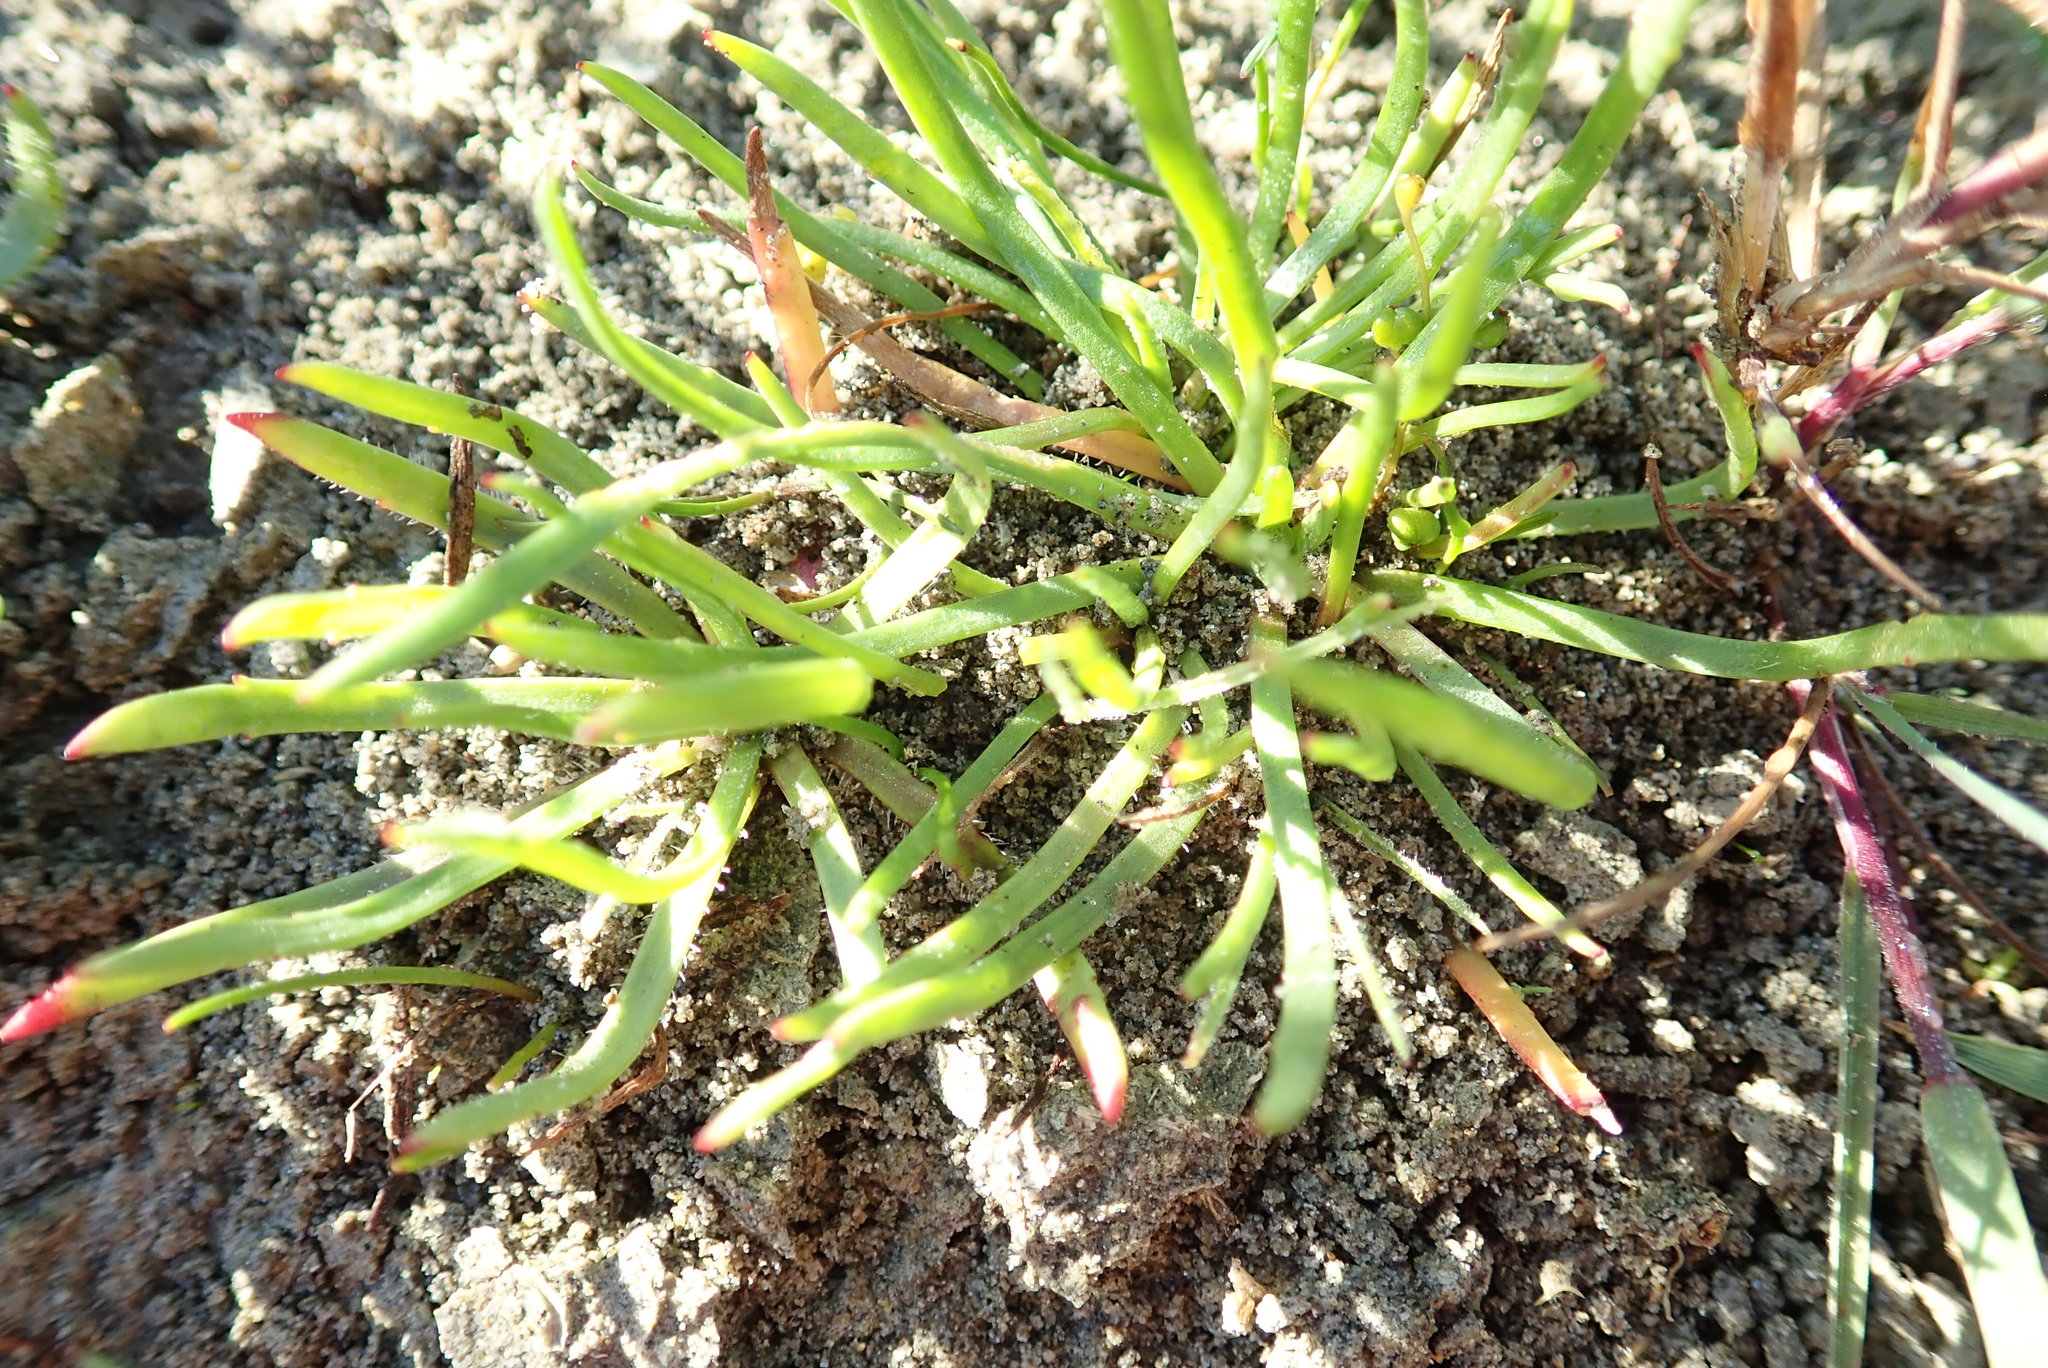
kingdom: Plantae
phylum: Tracheophyta
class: Magnoliopsida
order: Lamiales
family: Plantaginaceae
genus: Plantago
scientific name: Plantago coronopus
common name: Buck's-horn plantain
